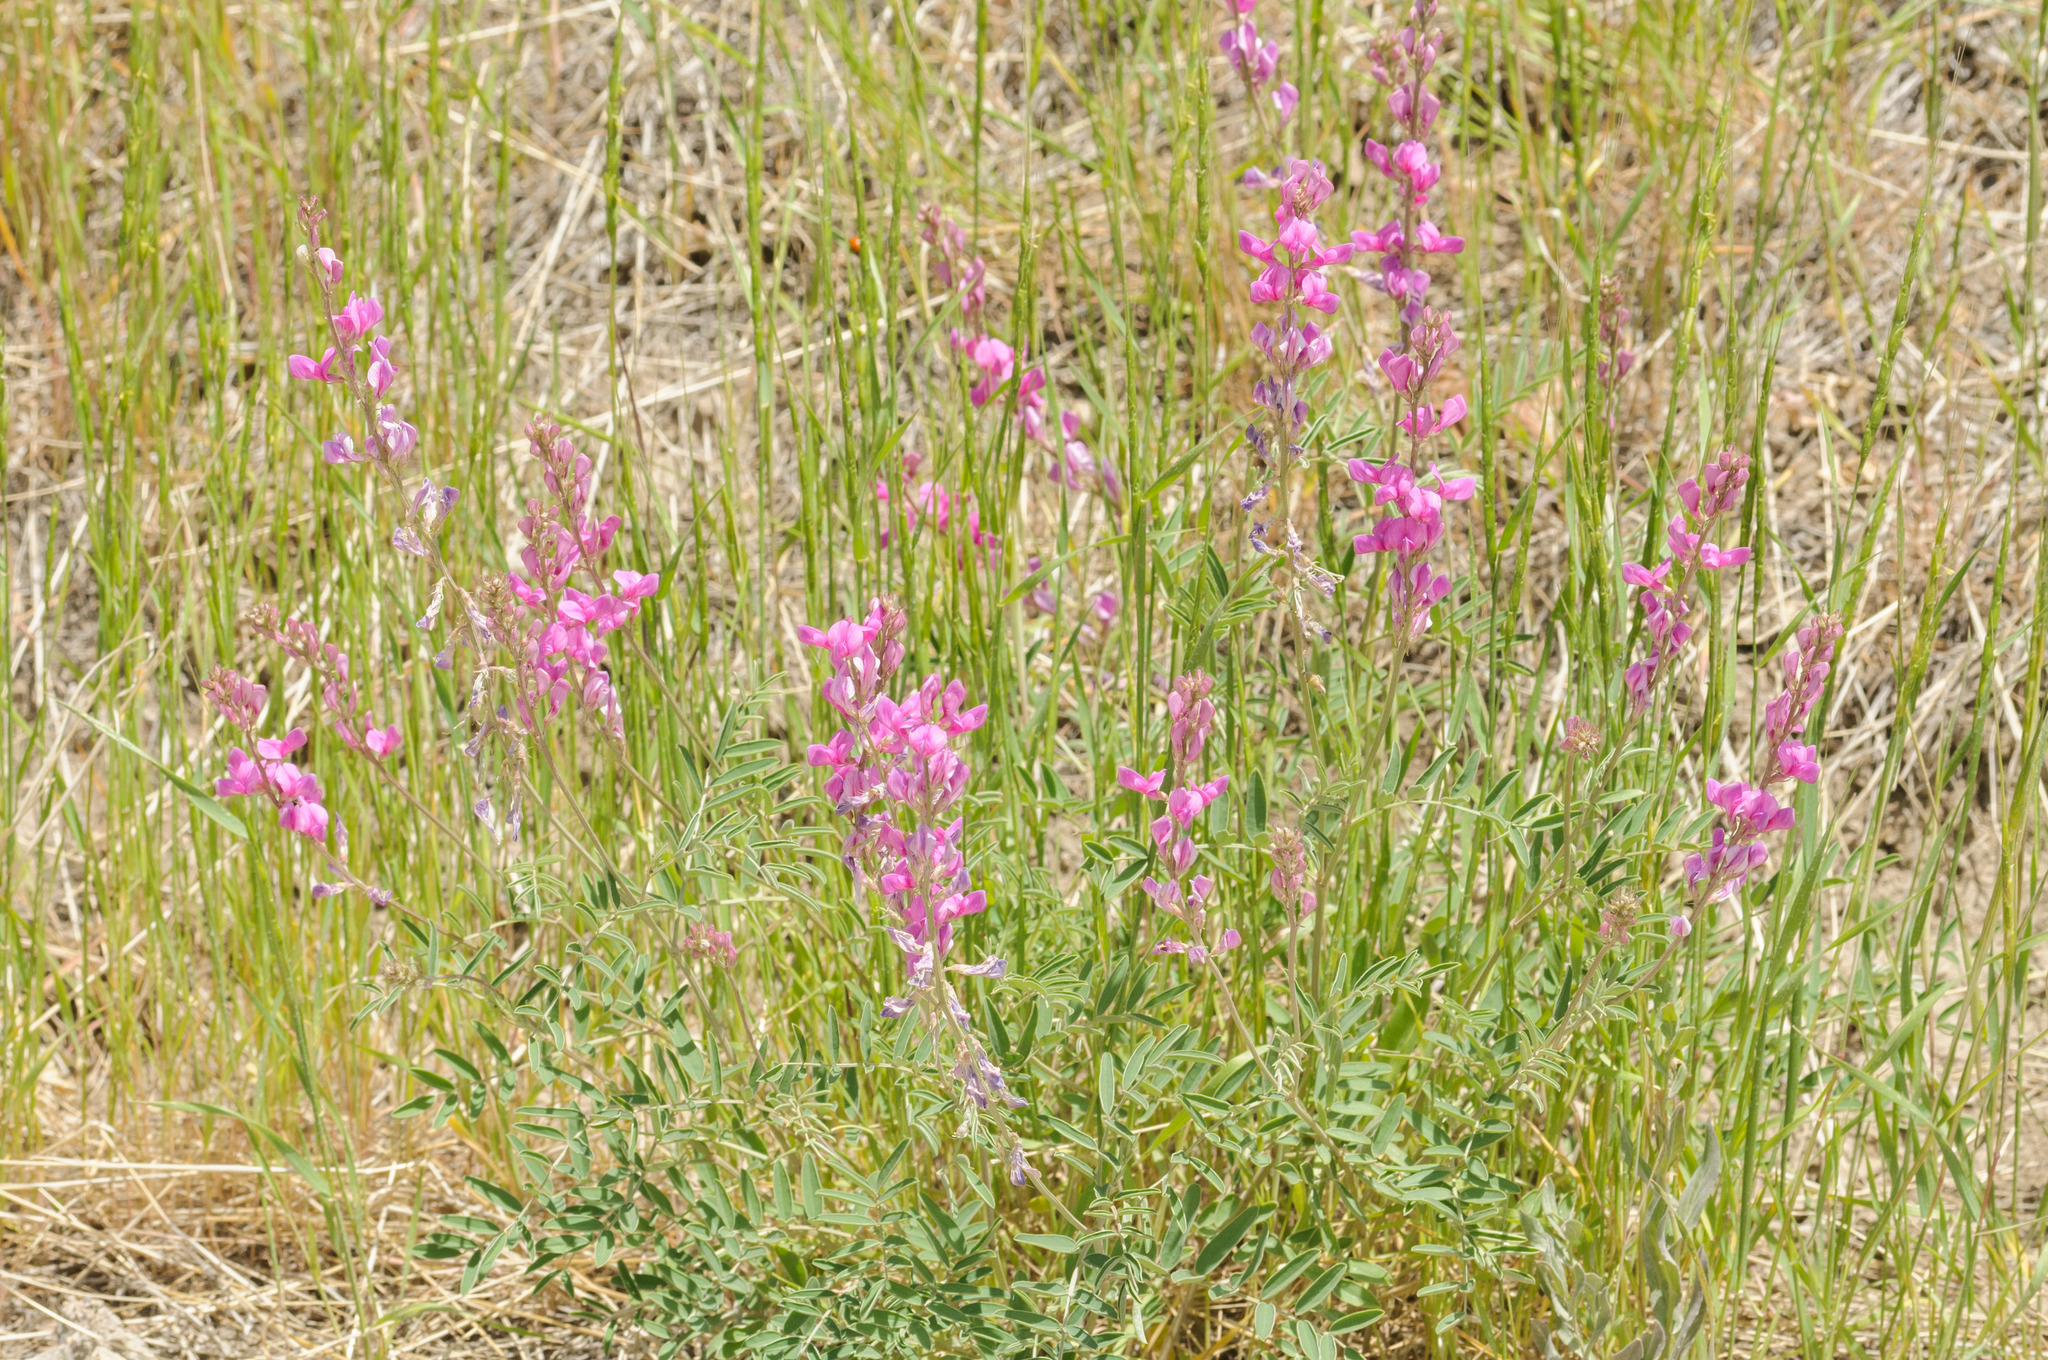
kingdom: Plantae
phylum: Tracheophyta
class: Magnoliopsida
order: Fabales
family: Fabaceae
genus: Hedysarum
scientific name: Hedysarum boreale
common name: Northern sweet-vetch
